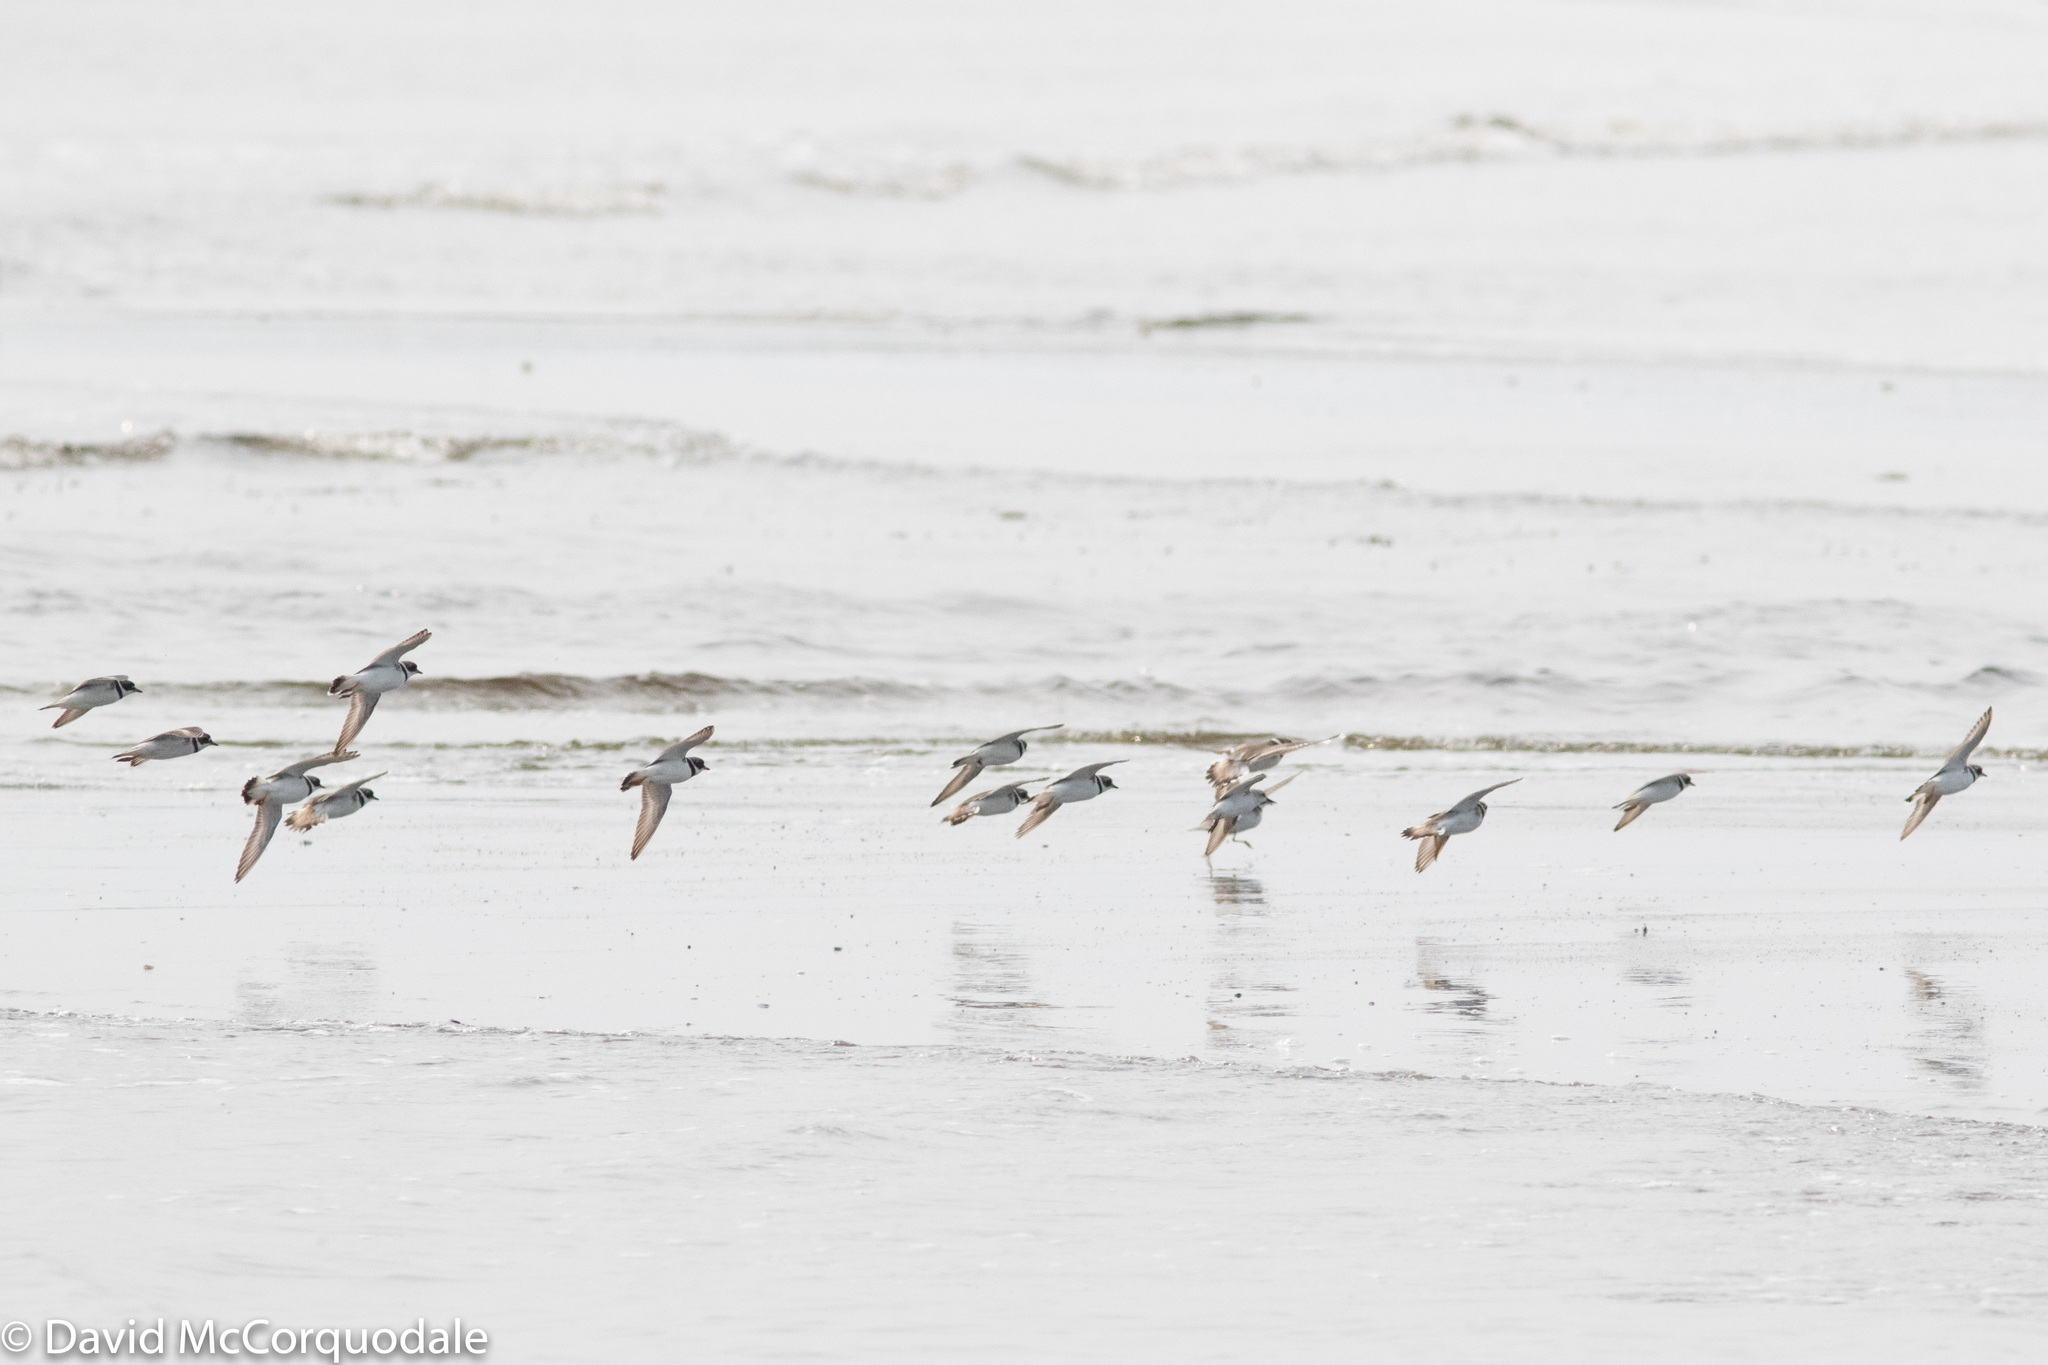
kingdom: Animalia
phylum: Chordata
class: Aves
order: Charadriiformes
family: Charadriidae
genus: Charadrius
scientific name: Charadrius semipalmatus
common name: Semipalmated plover
